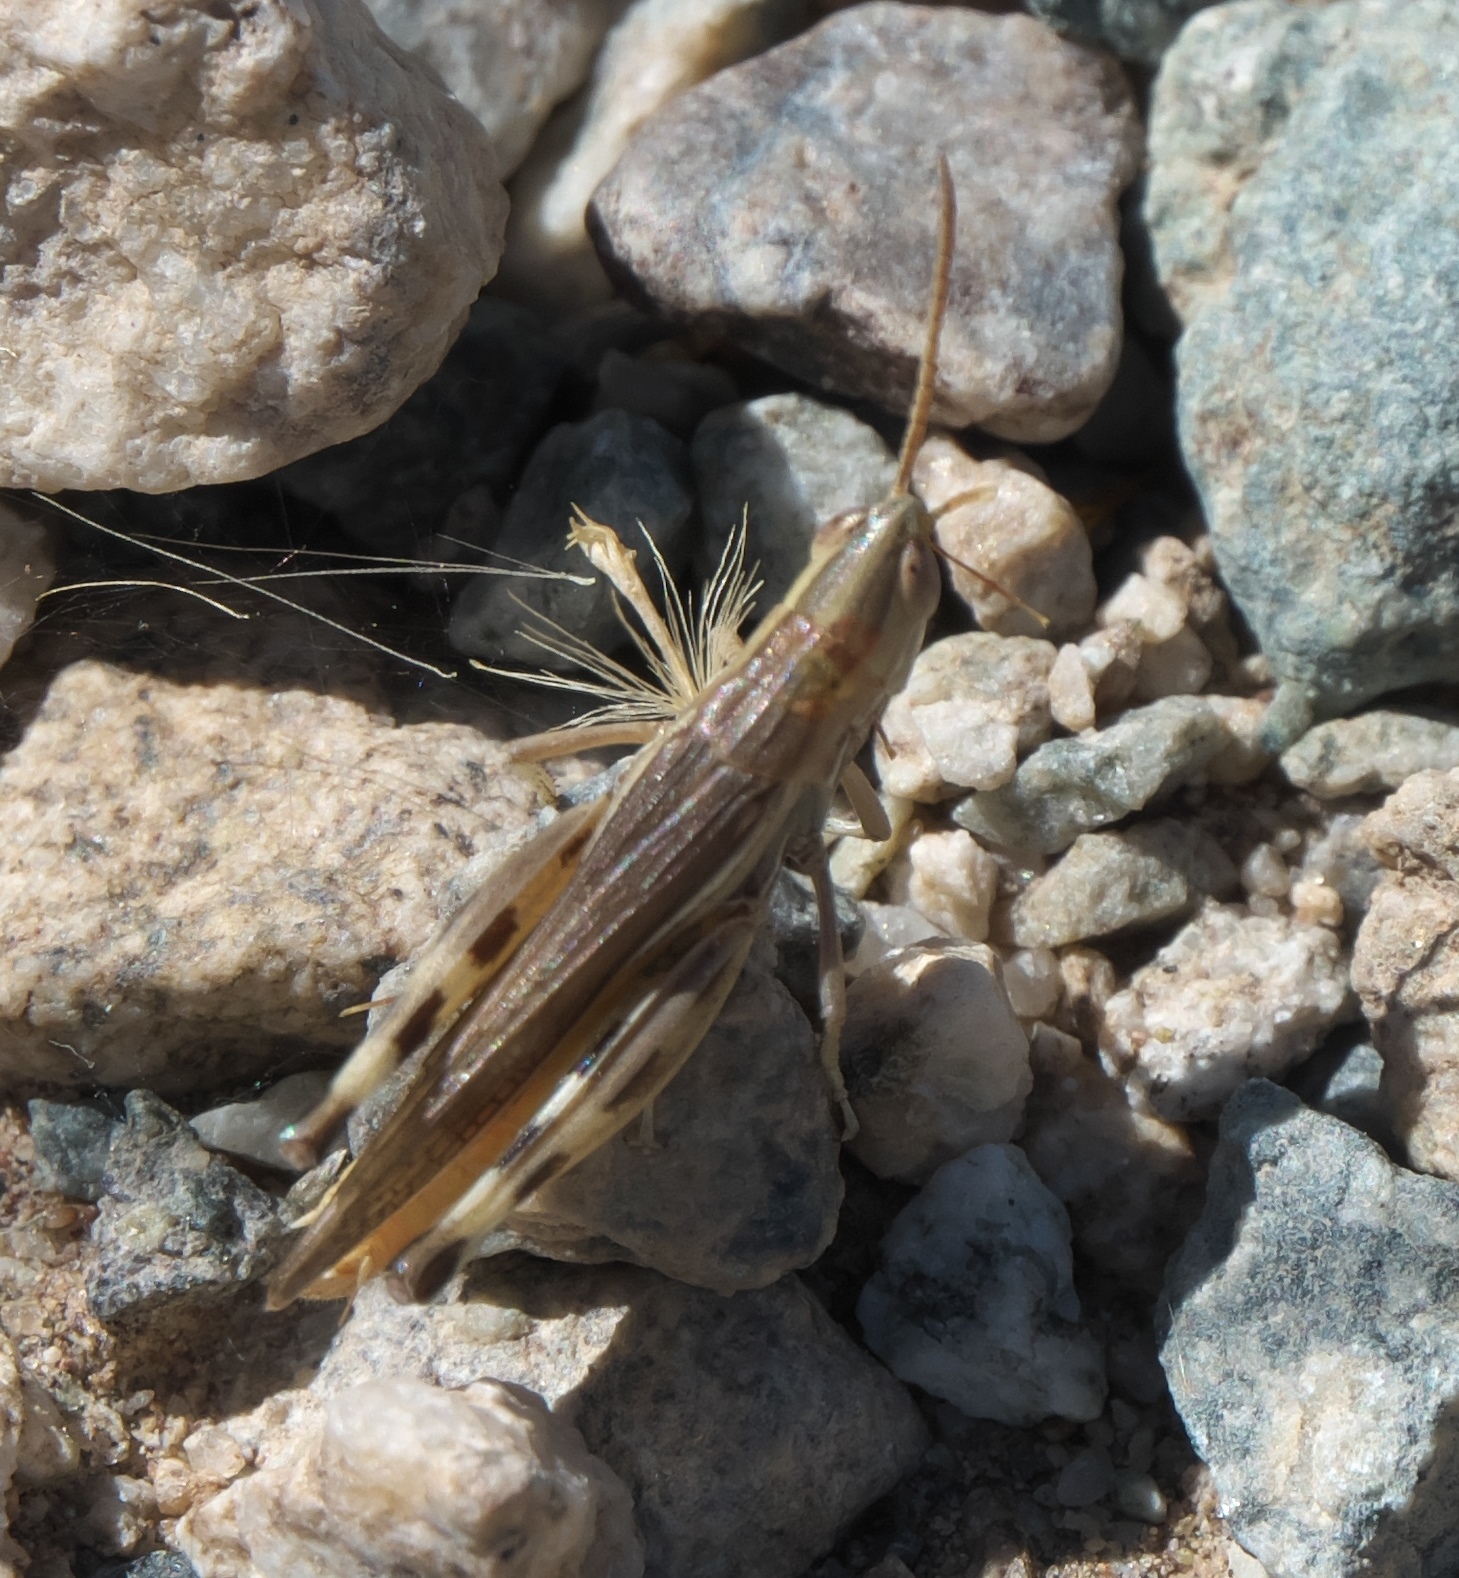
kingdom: Animalia
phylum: Arthropoda
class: Insecta
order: Orthoptera
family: Acrididae
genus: Amphitornus
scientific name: Amphitornus coloradus
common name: Striped grasshopper
